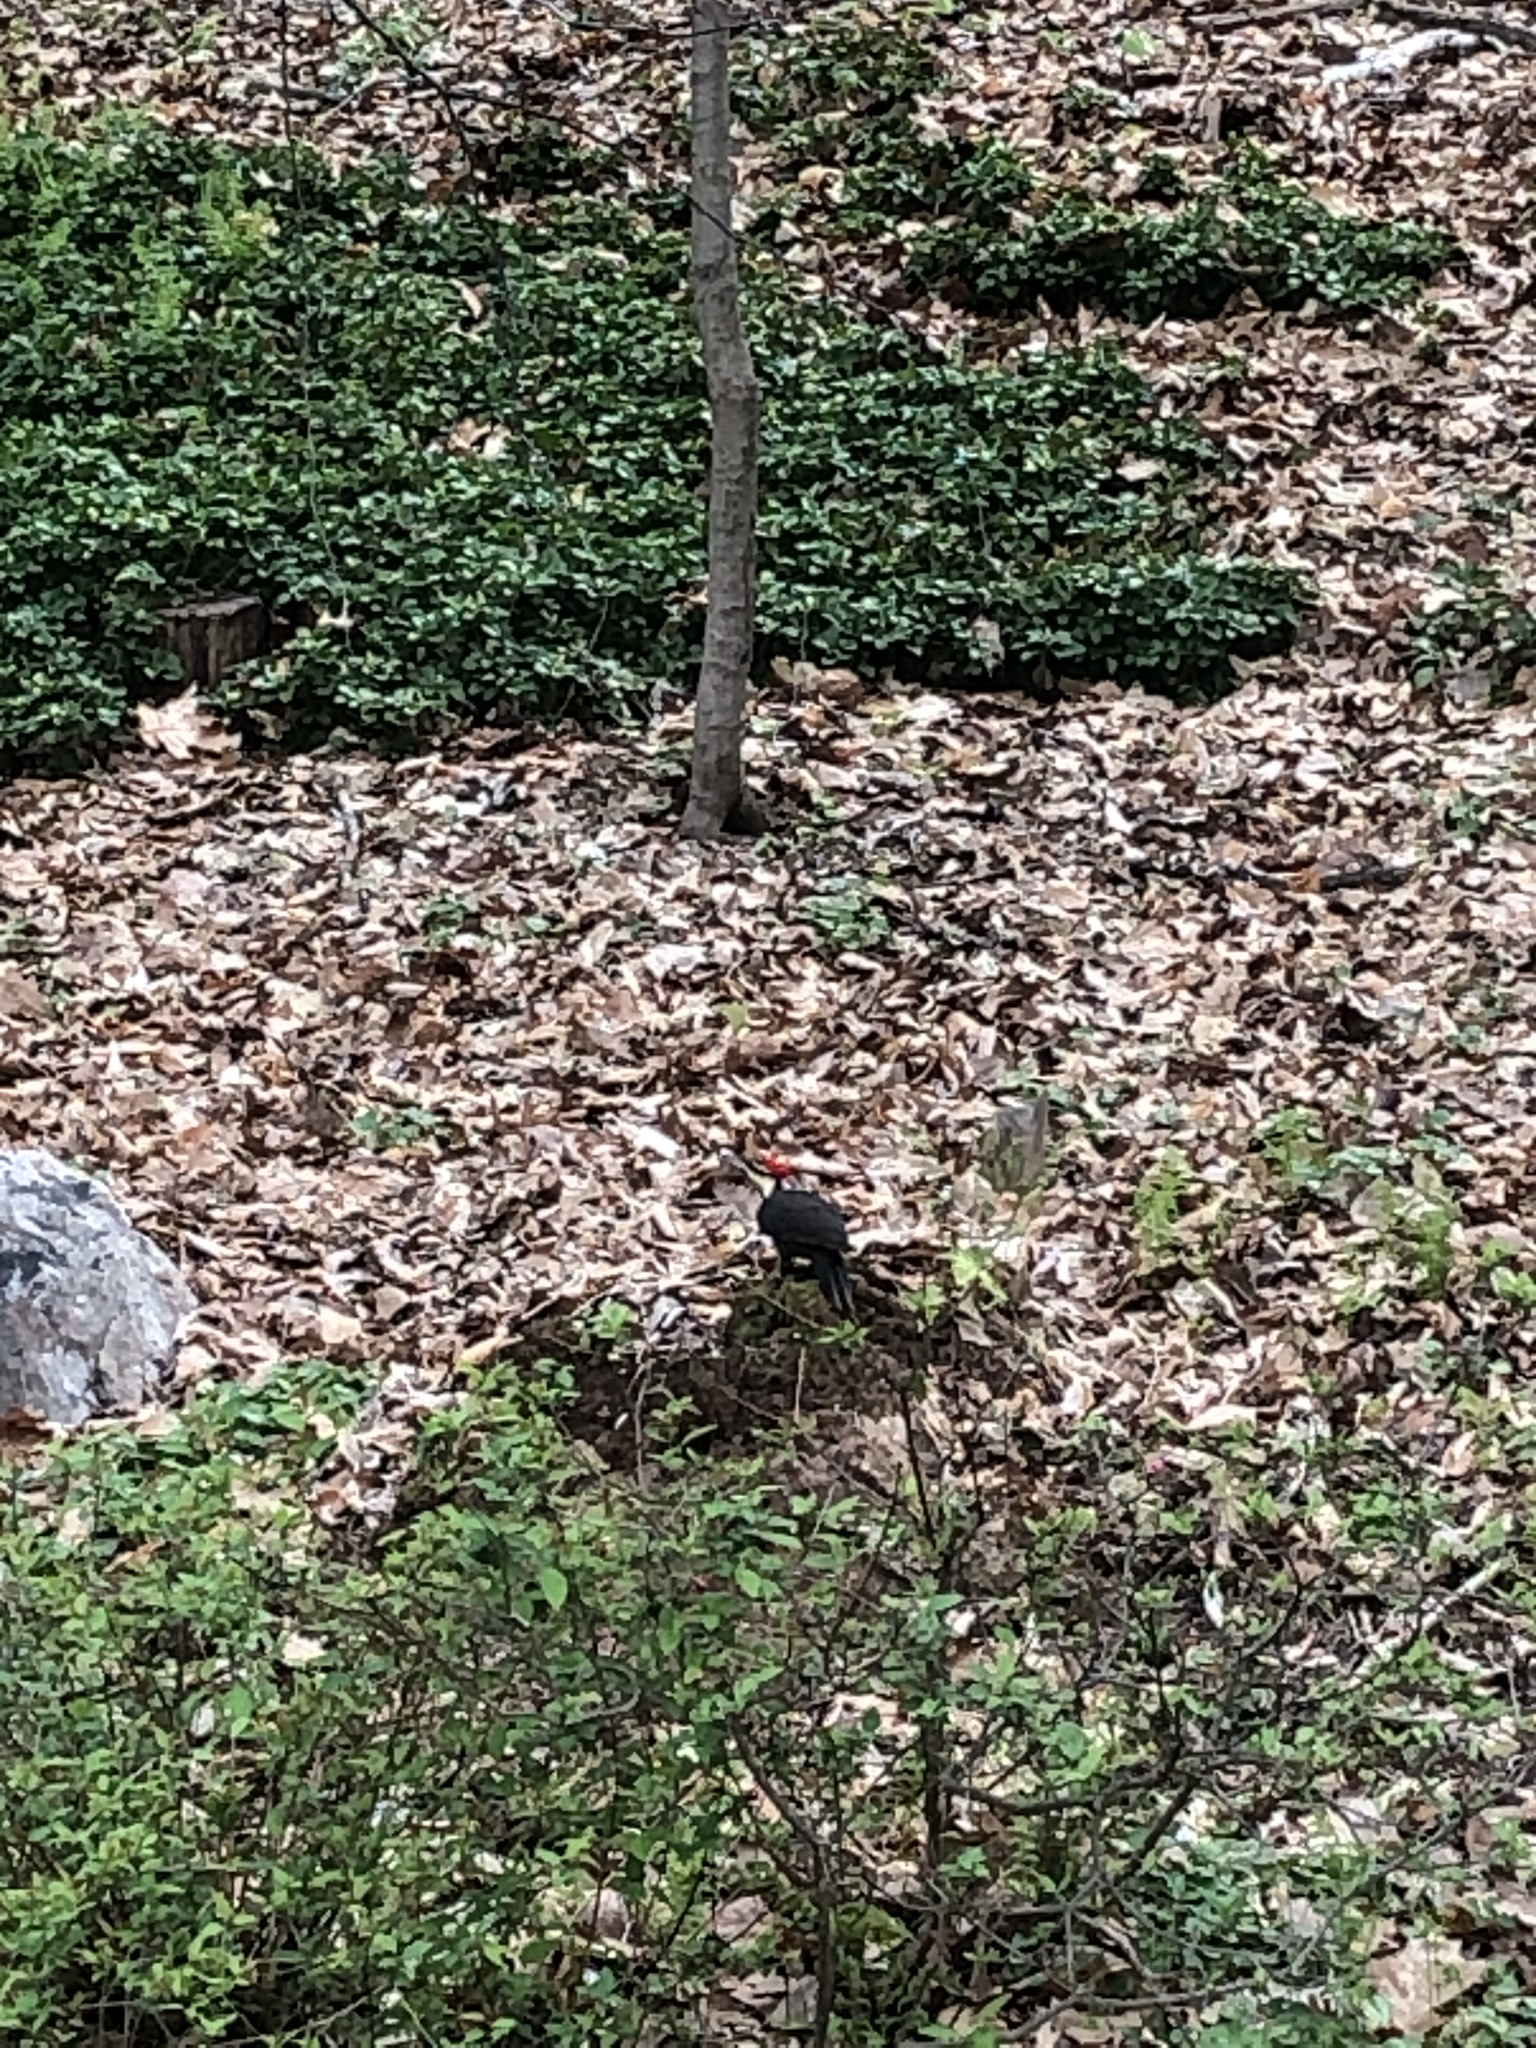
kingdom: Animalia
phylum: Chordata
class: Aves
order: Piciformes
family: Picidae
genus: Dryocopus
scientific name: Dryocopus pileatus
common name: Pileated woodpecker
